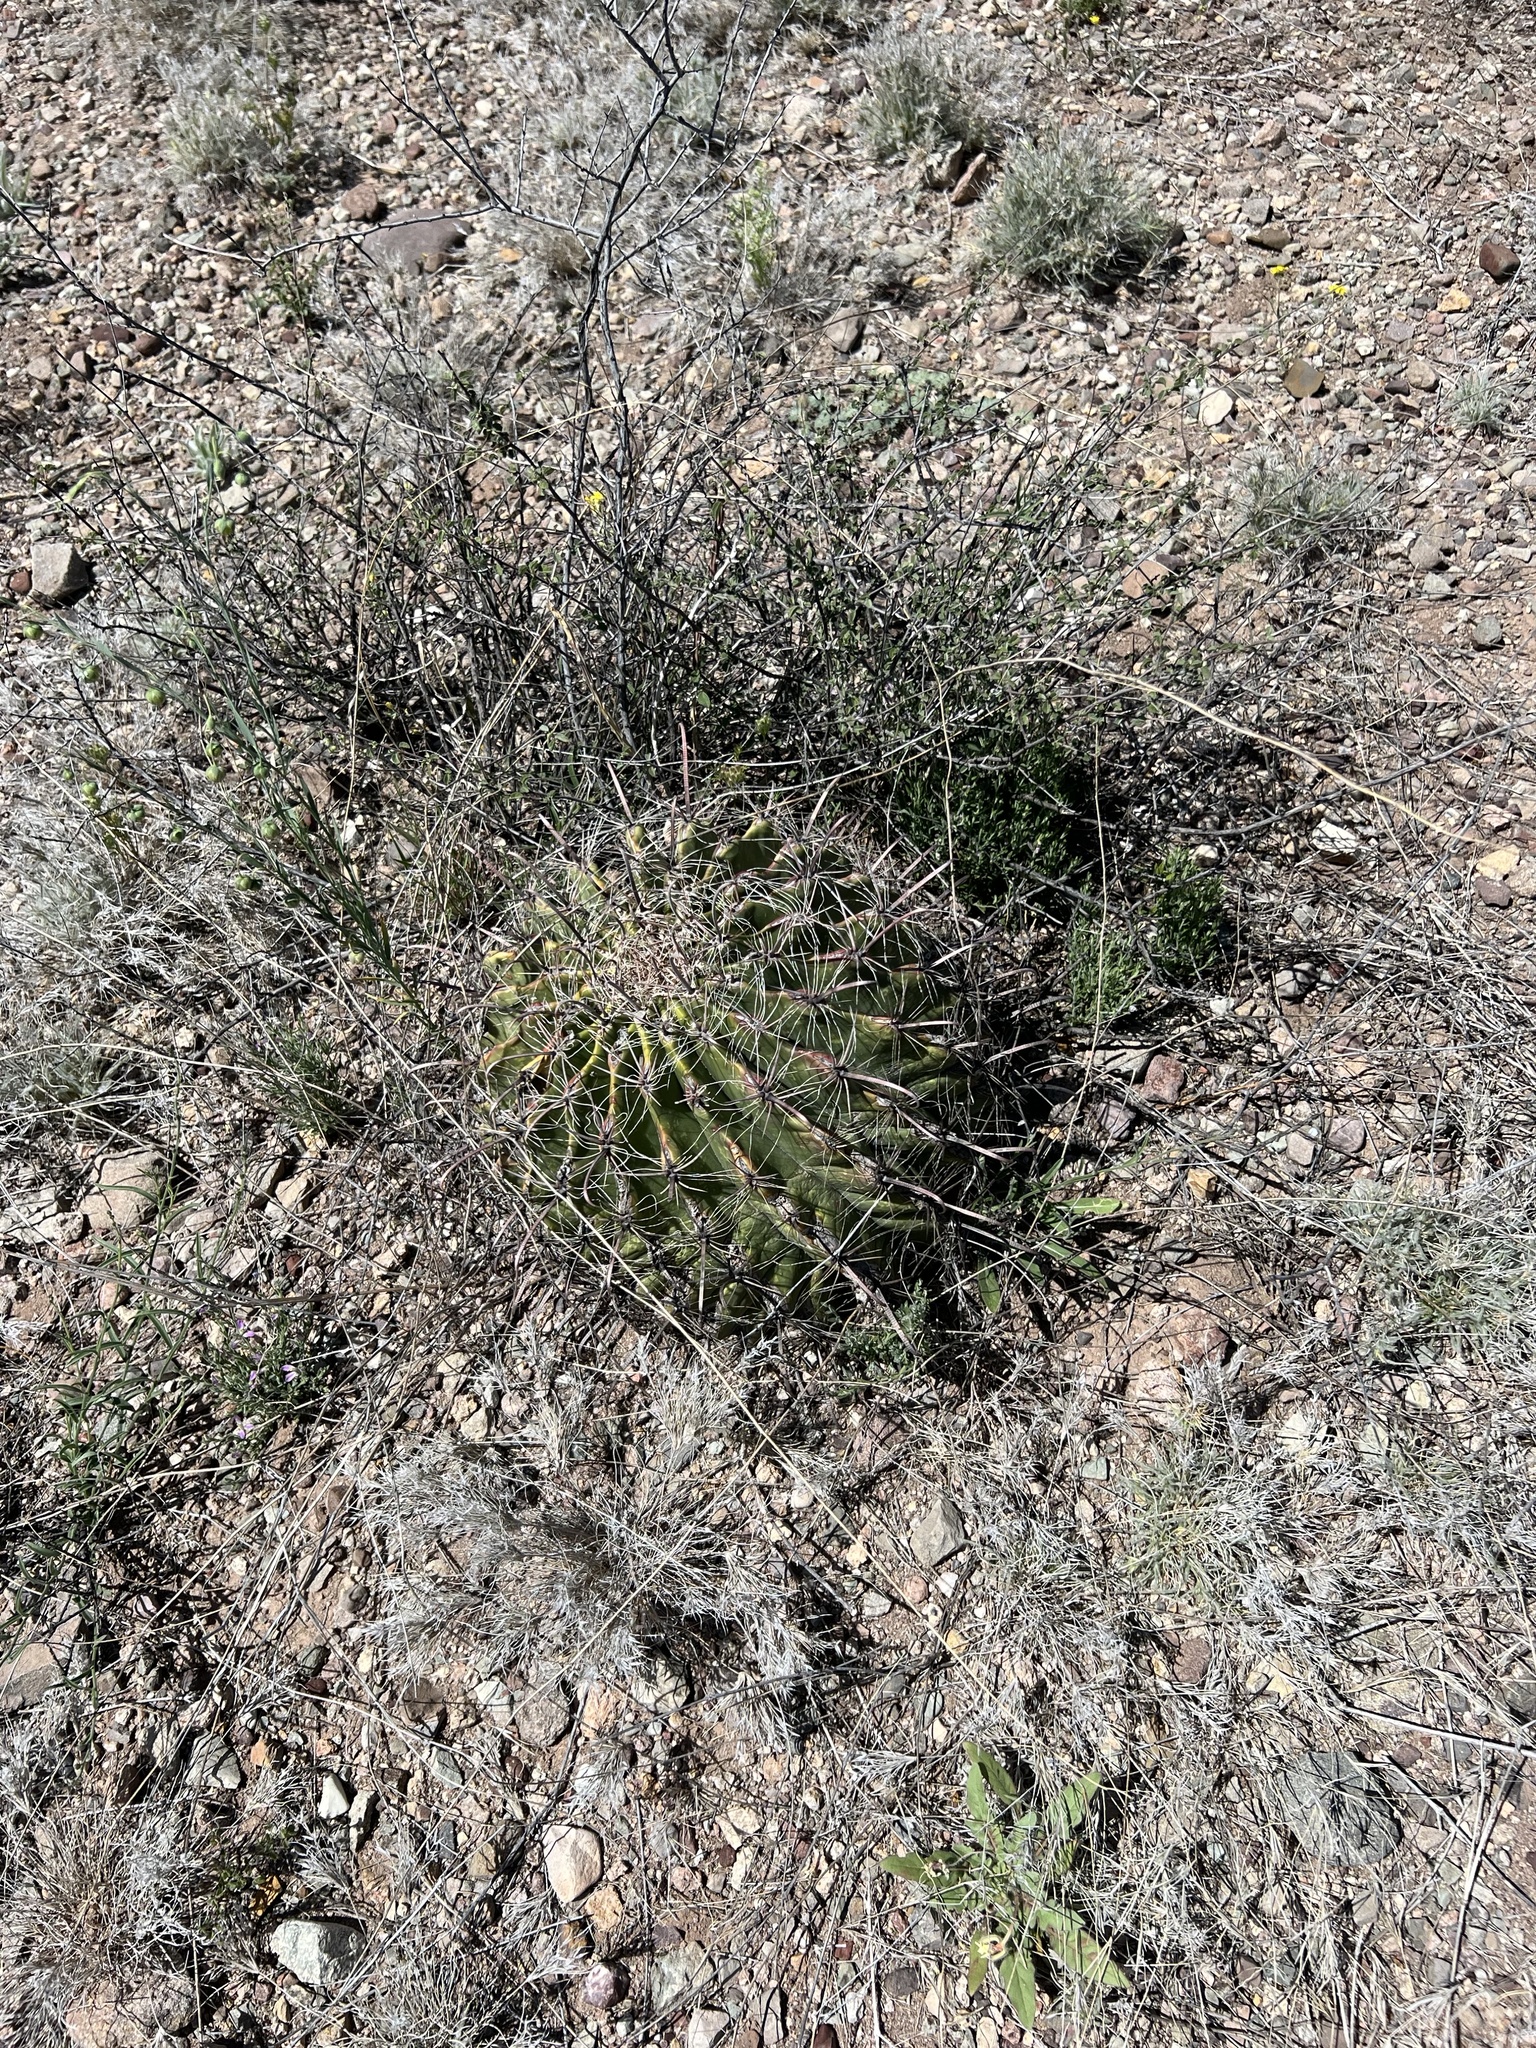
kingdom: Plantae
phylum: Tracheophyta
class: Magnoliopsida
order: Caryophyllales
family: Cactaceae
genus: Ferocactus
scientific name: Ferocactus wislizeni
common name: Candy barrel cactus
